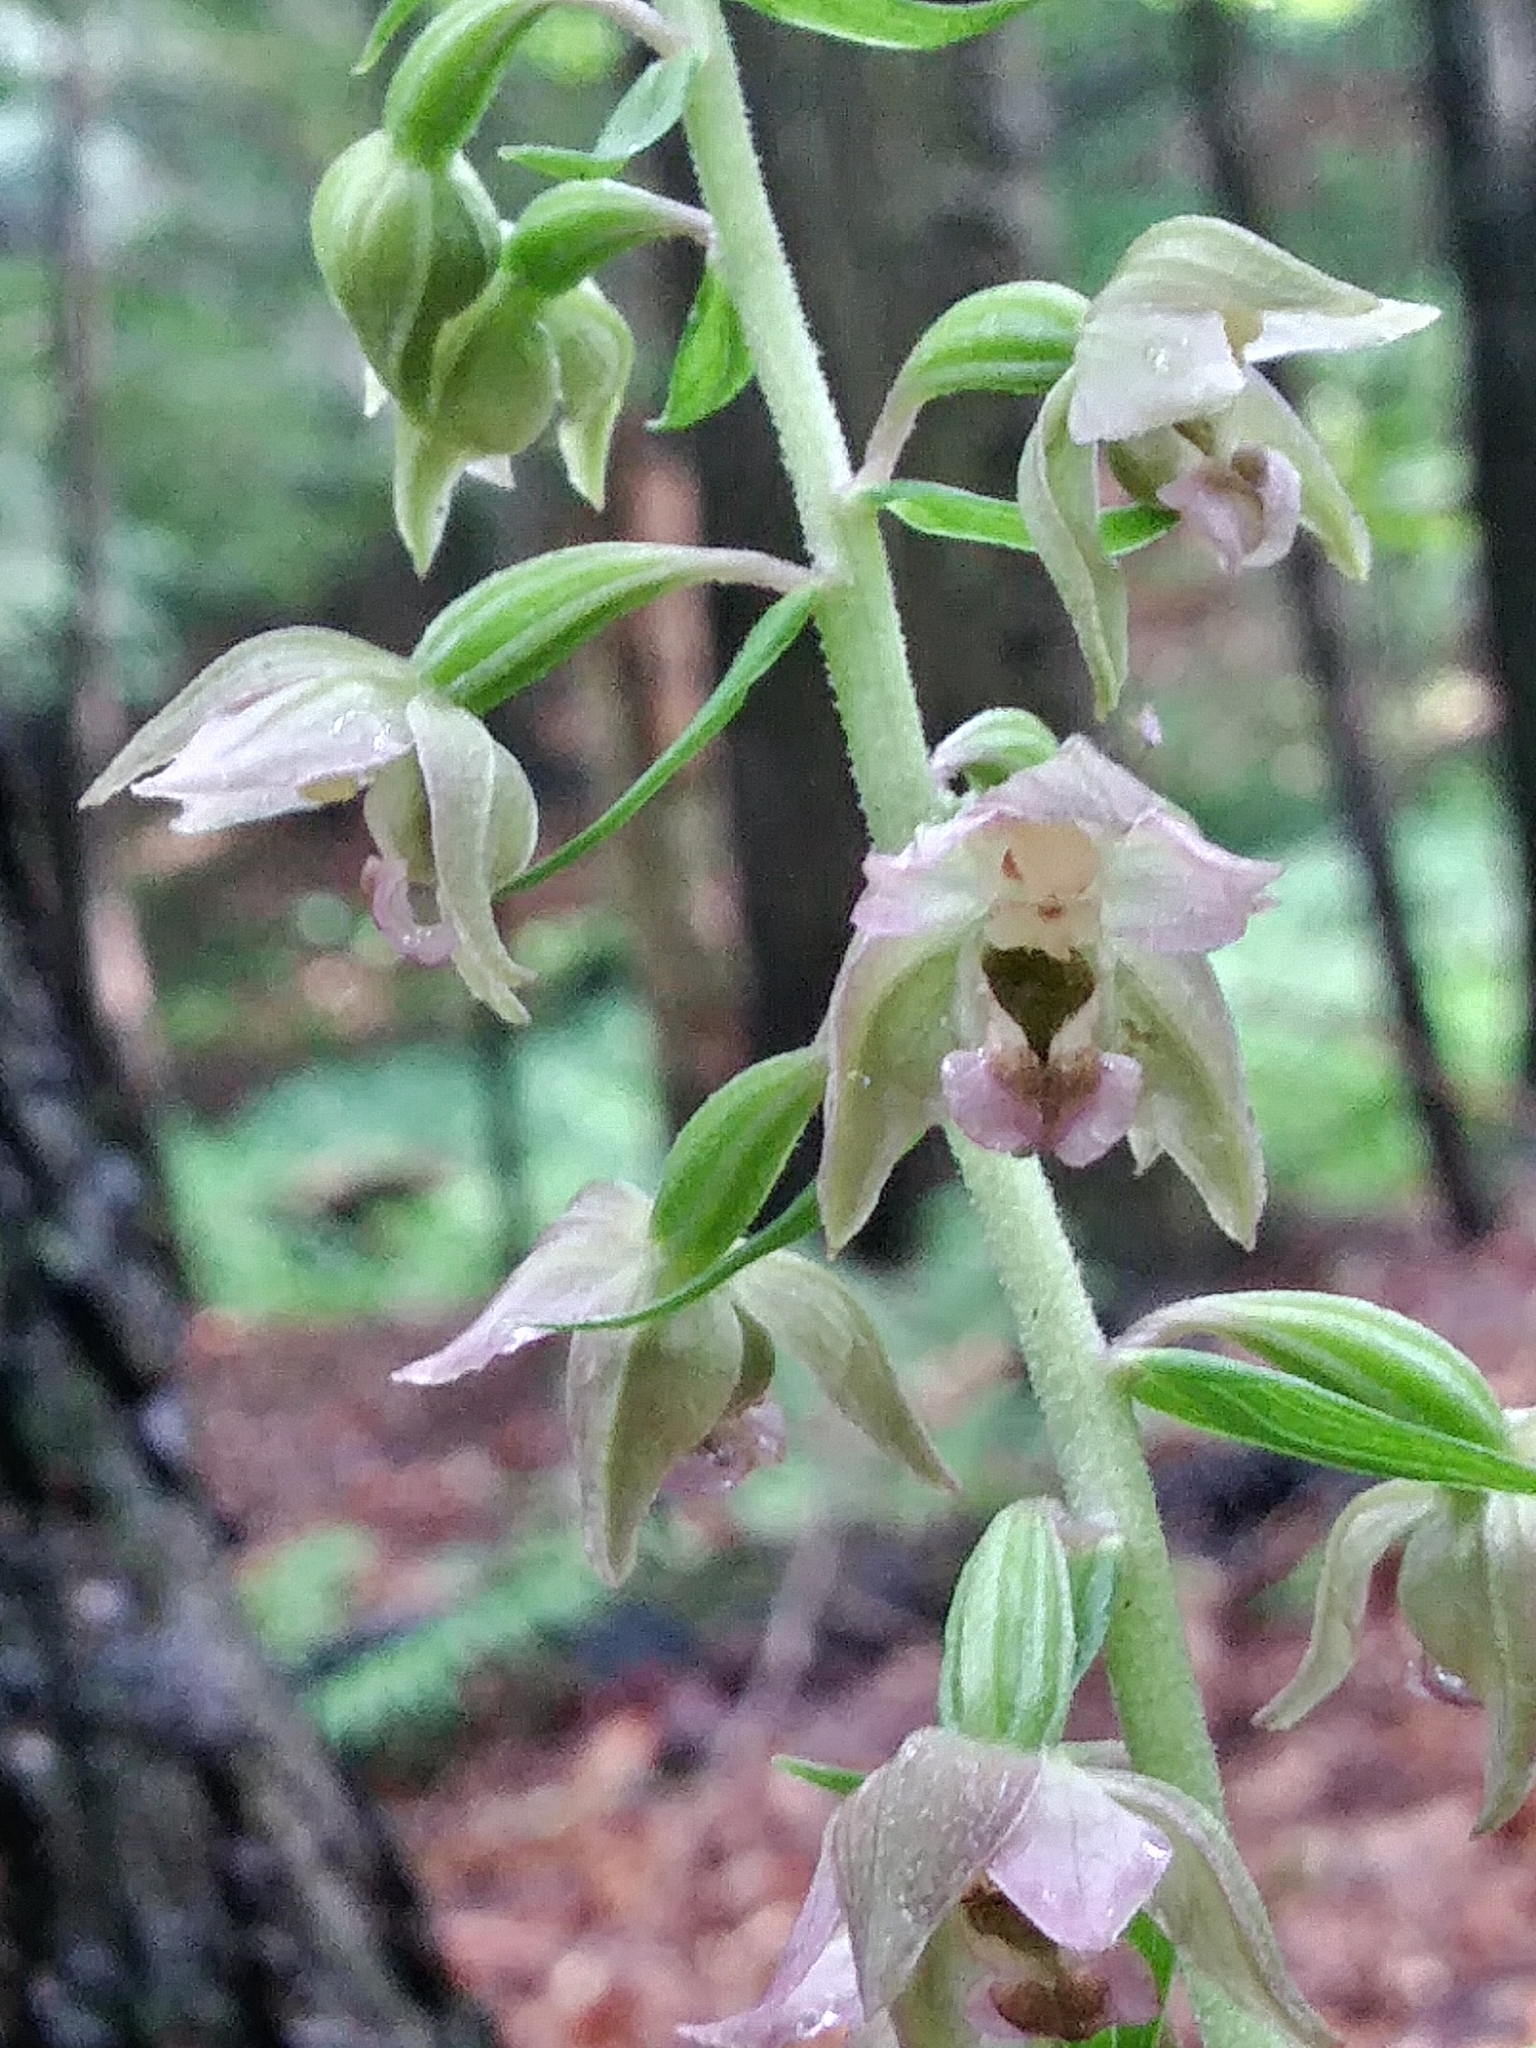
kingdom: Plantae
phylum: Tracheophyta
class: Liliopsida
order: Asparagales
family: Orchidaceae
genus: Epipactis
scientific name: Epipactis helleborine
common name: Broad-leaved helleborine
